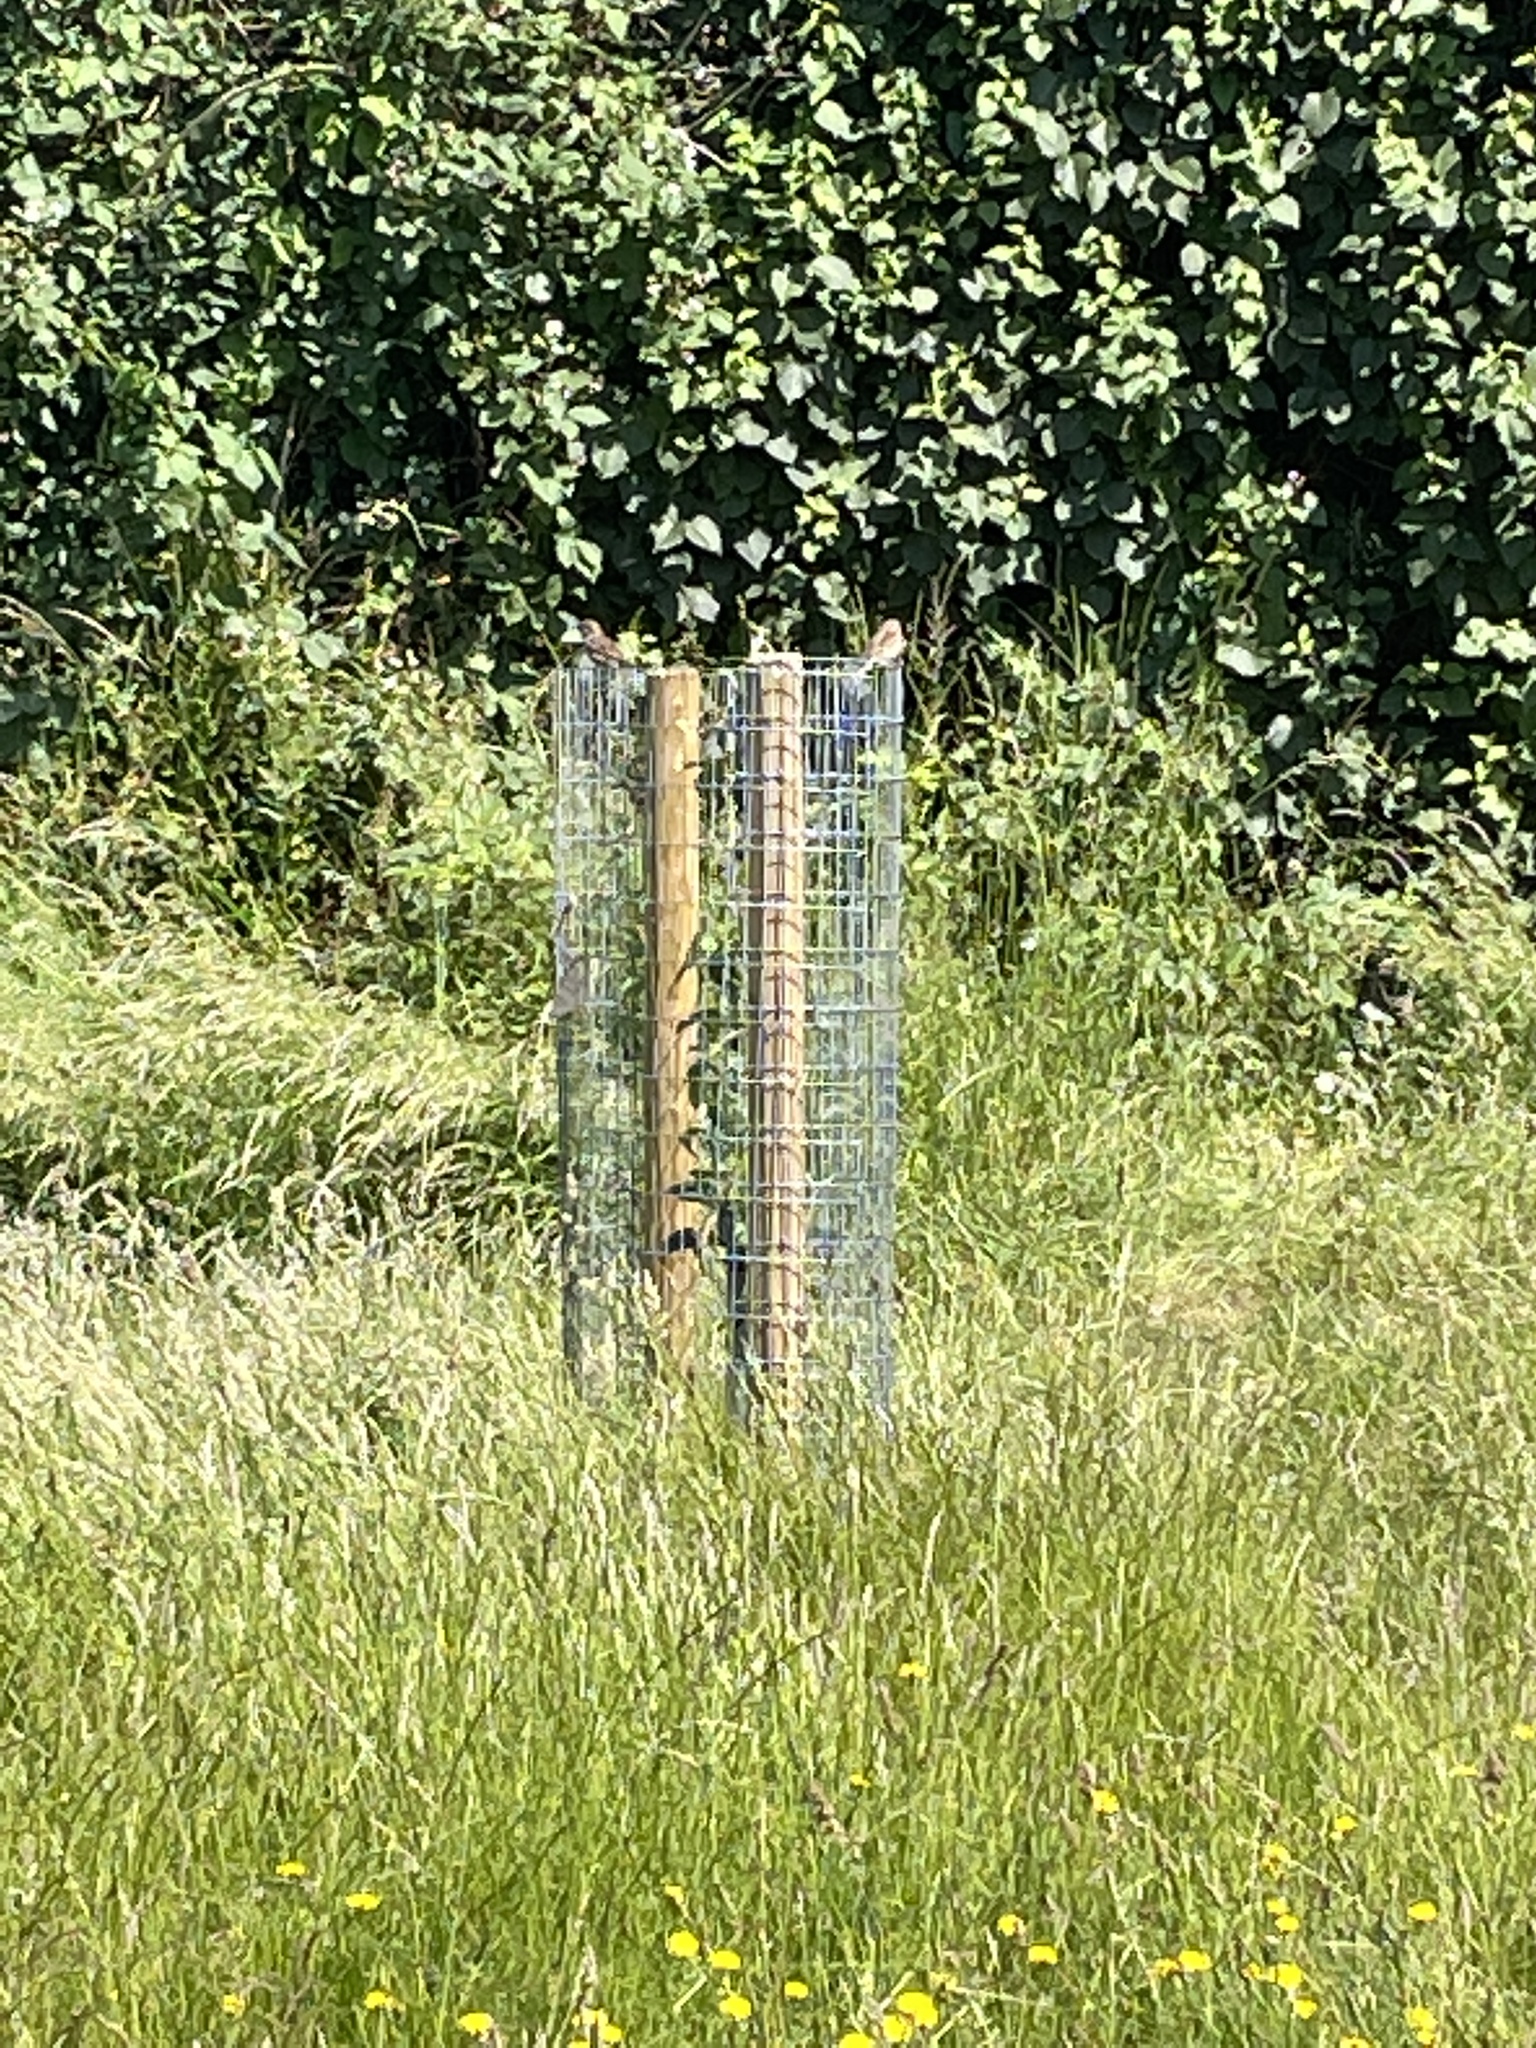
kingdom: Animalia
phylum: Chordata
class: Aves
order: Passeriformes
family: Passeridae
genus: Passer
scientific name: Passer domesticus
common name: House sparrow
